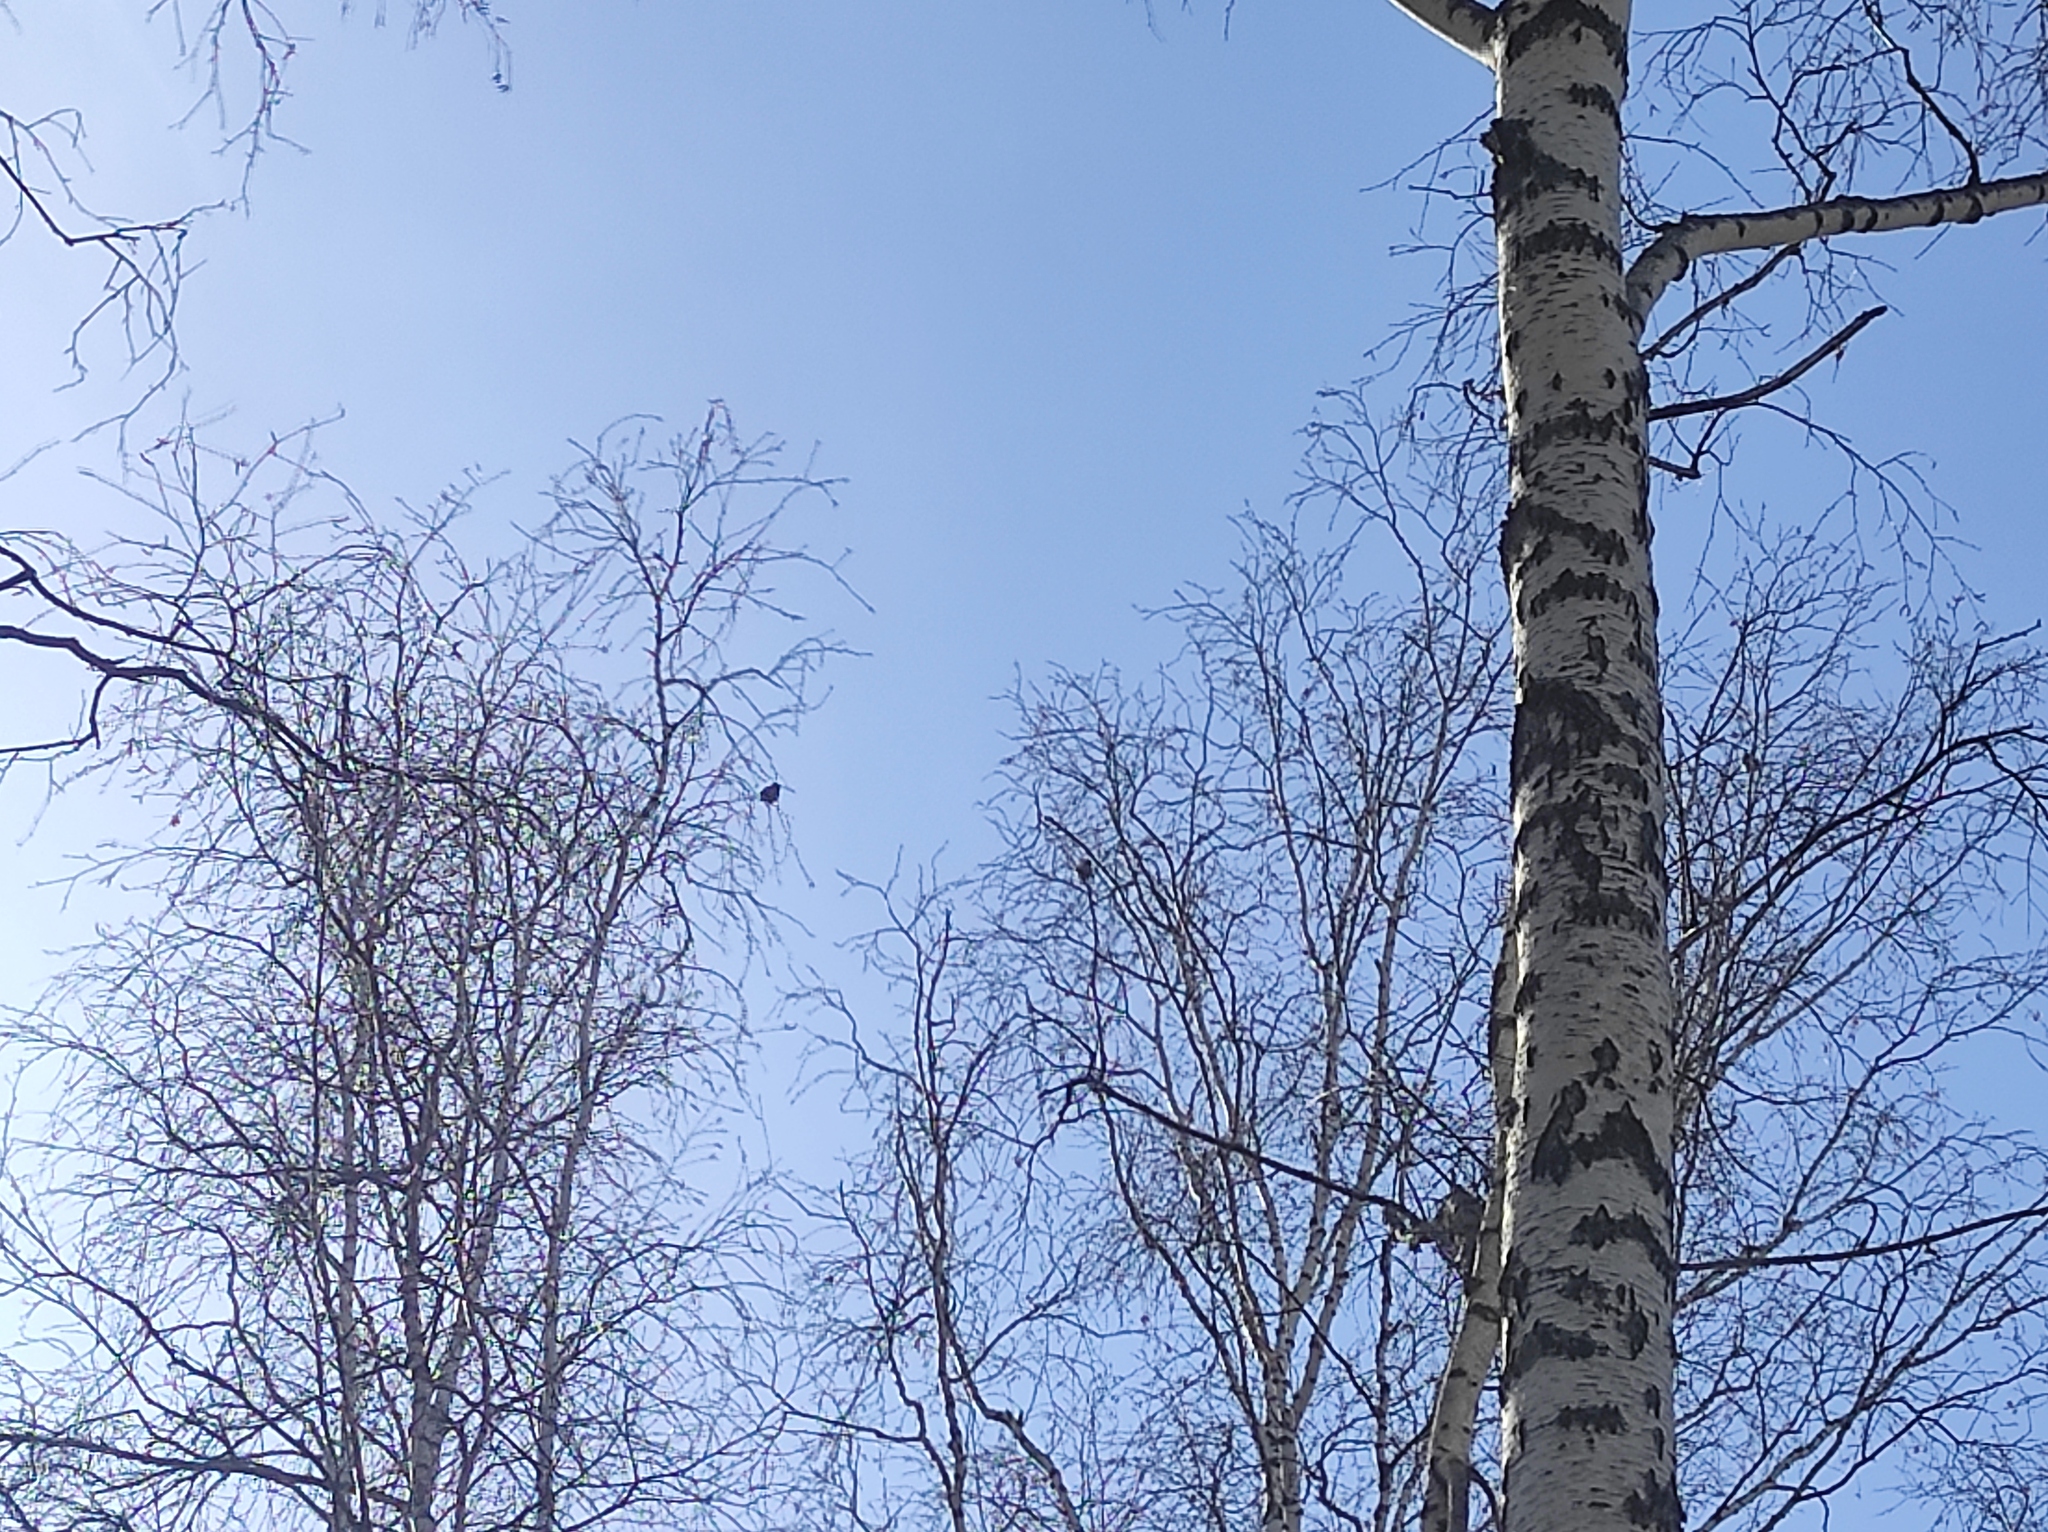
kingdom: Animalia
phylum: Chordata
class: Aves
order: Passeriformes
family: Bombycillidae
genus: Bombycilla
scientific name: Bombycilla garrulus
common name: Bohemian waxwing
